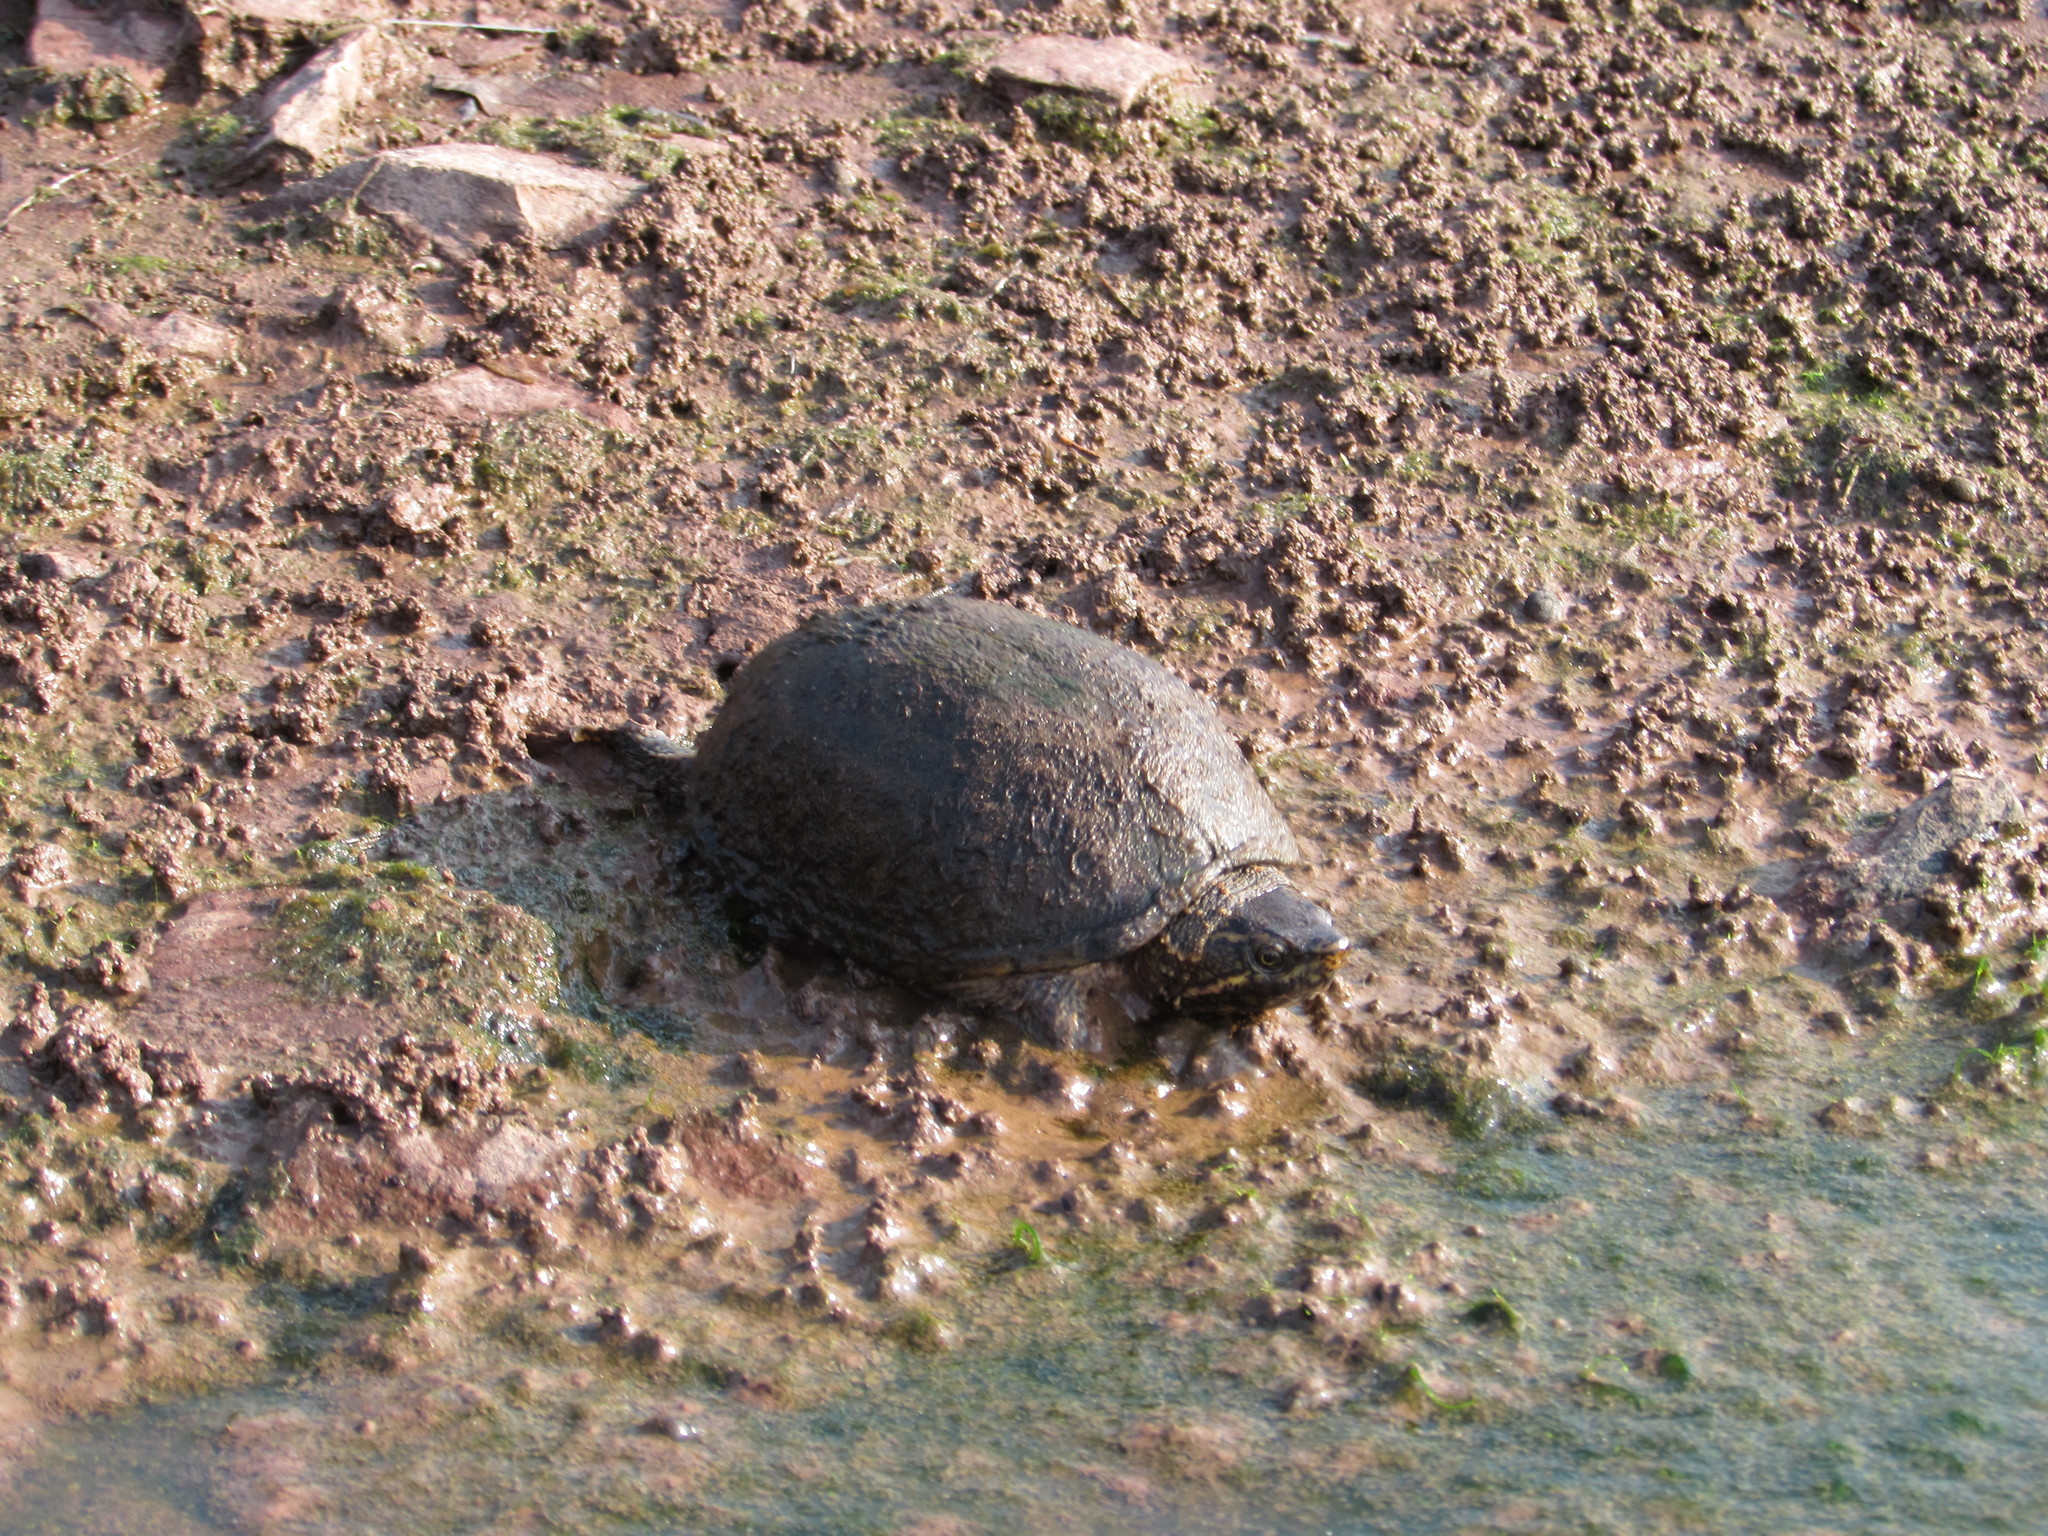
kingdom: Animalia
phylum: Chordata
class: Testudines
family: Kinosternidae
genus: Sternotherus
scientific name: Sternotherus odoratus
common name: Common musk turtle
